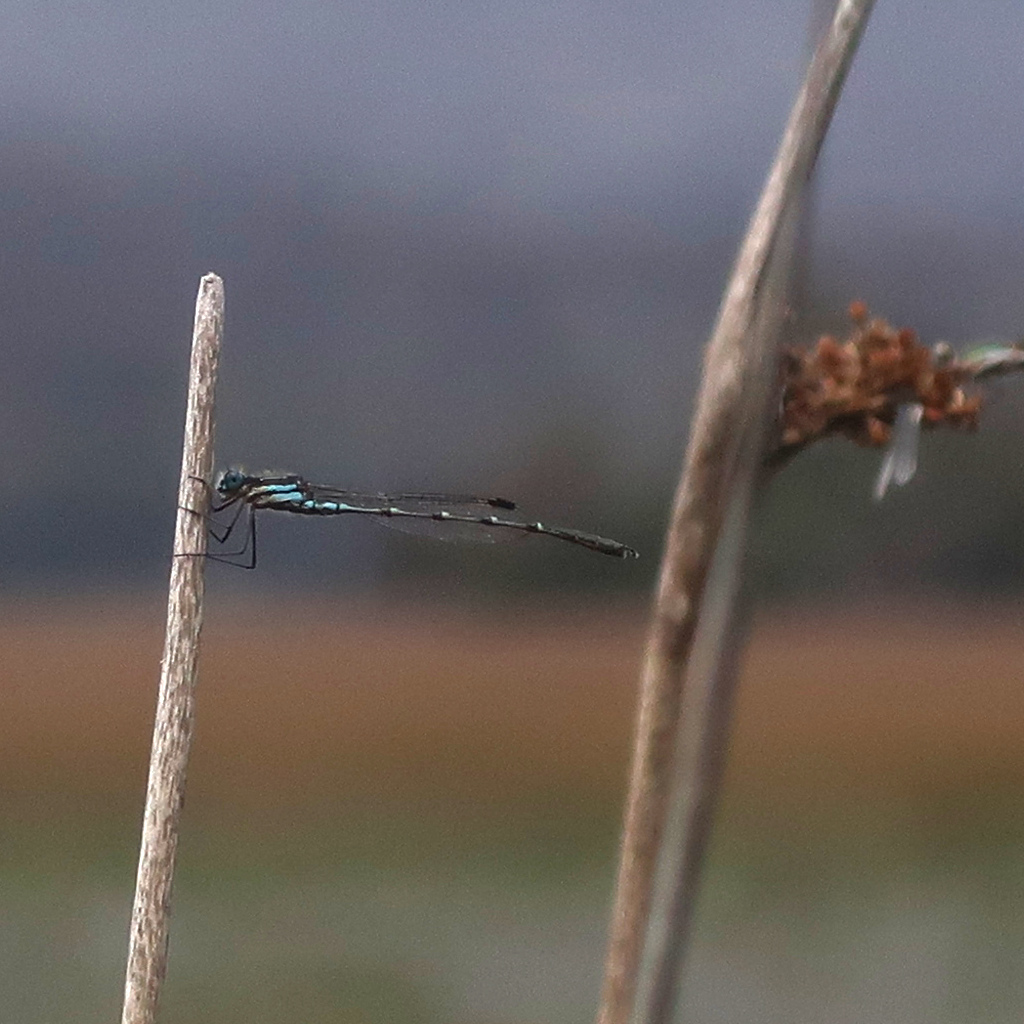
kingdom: Animalia
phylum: Arthropoda
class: Insecta
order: Odonata
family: Lestidae
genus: Austrolestes
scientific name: Austrolestes psyche
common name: Cup ringtail
